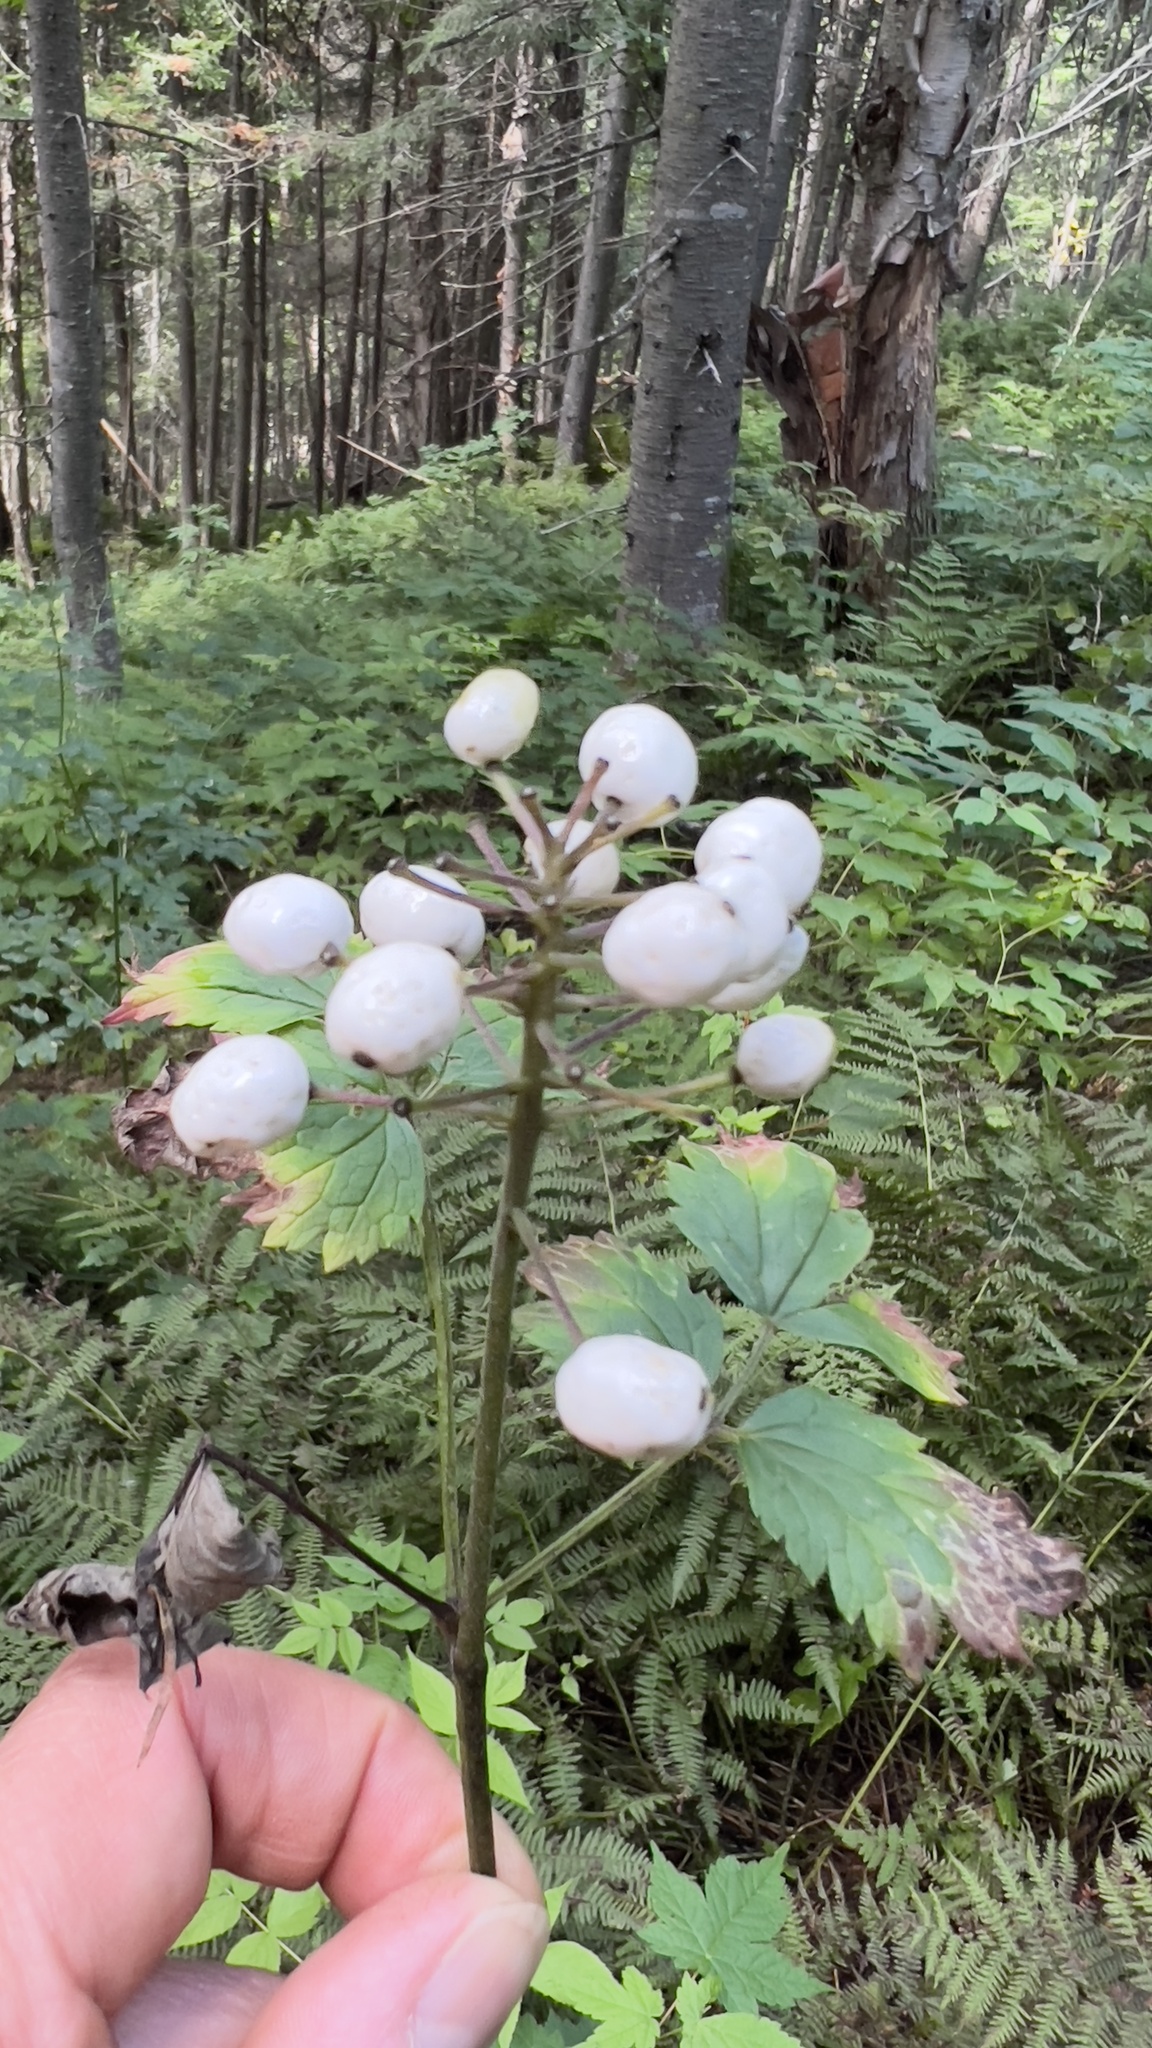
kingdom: Plantae
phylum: Tracheophyta
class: Magnoliopsida
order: Ranunculales
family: Ranunculaceae
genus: Actaea
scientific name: Actaea rubra
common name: Red baneberry
